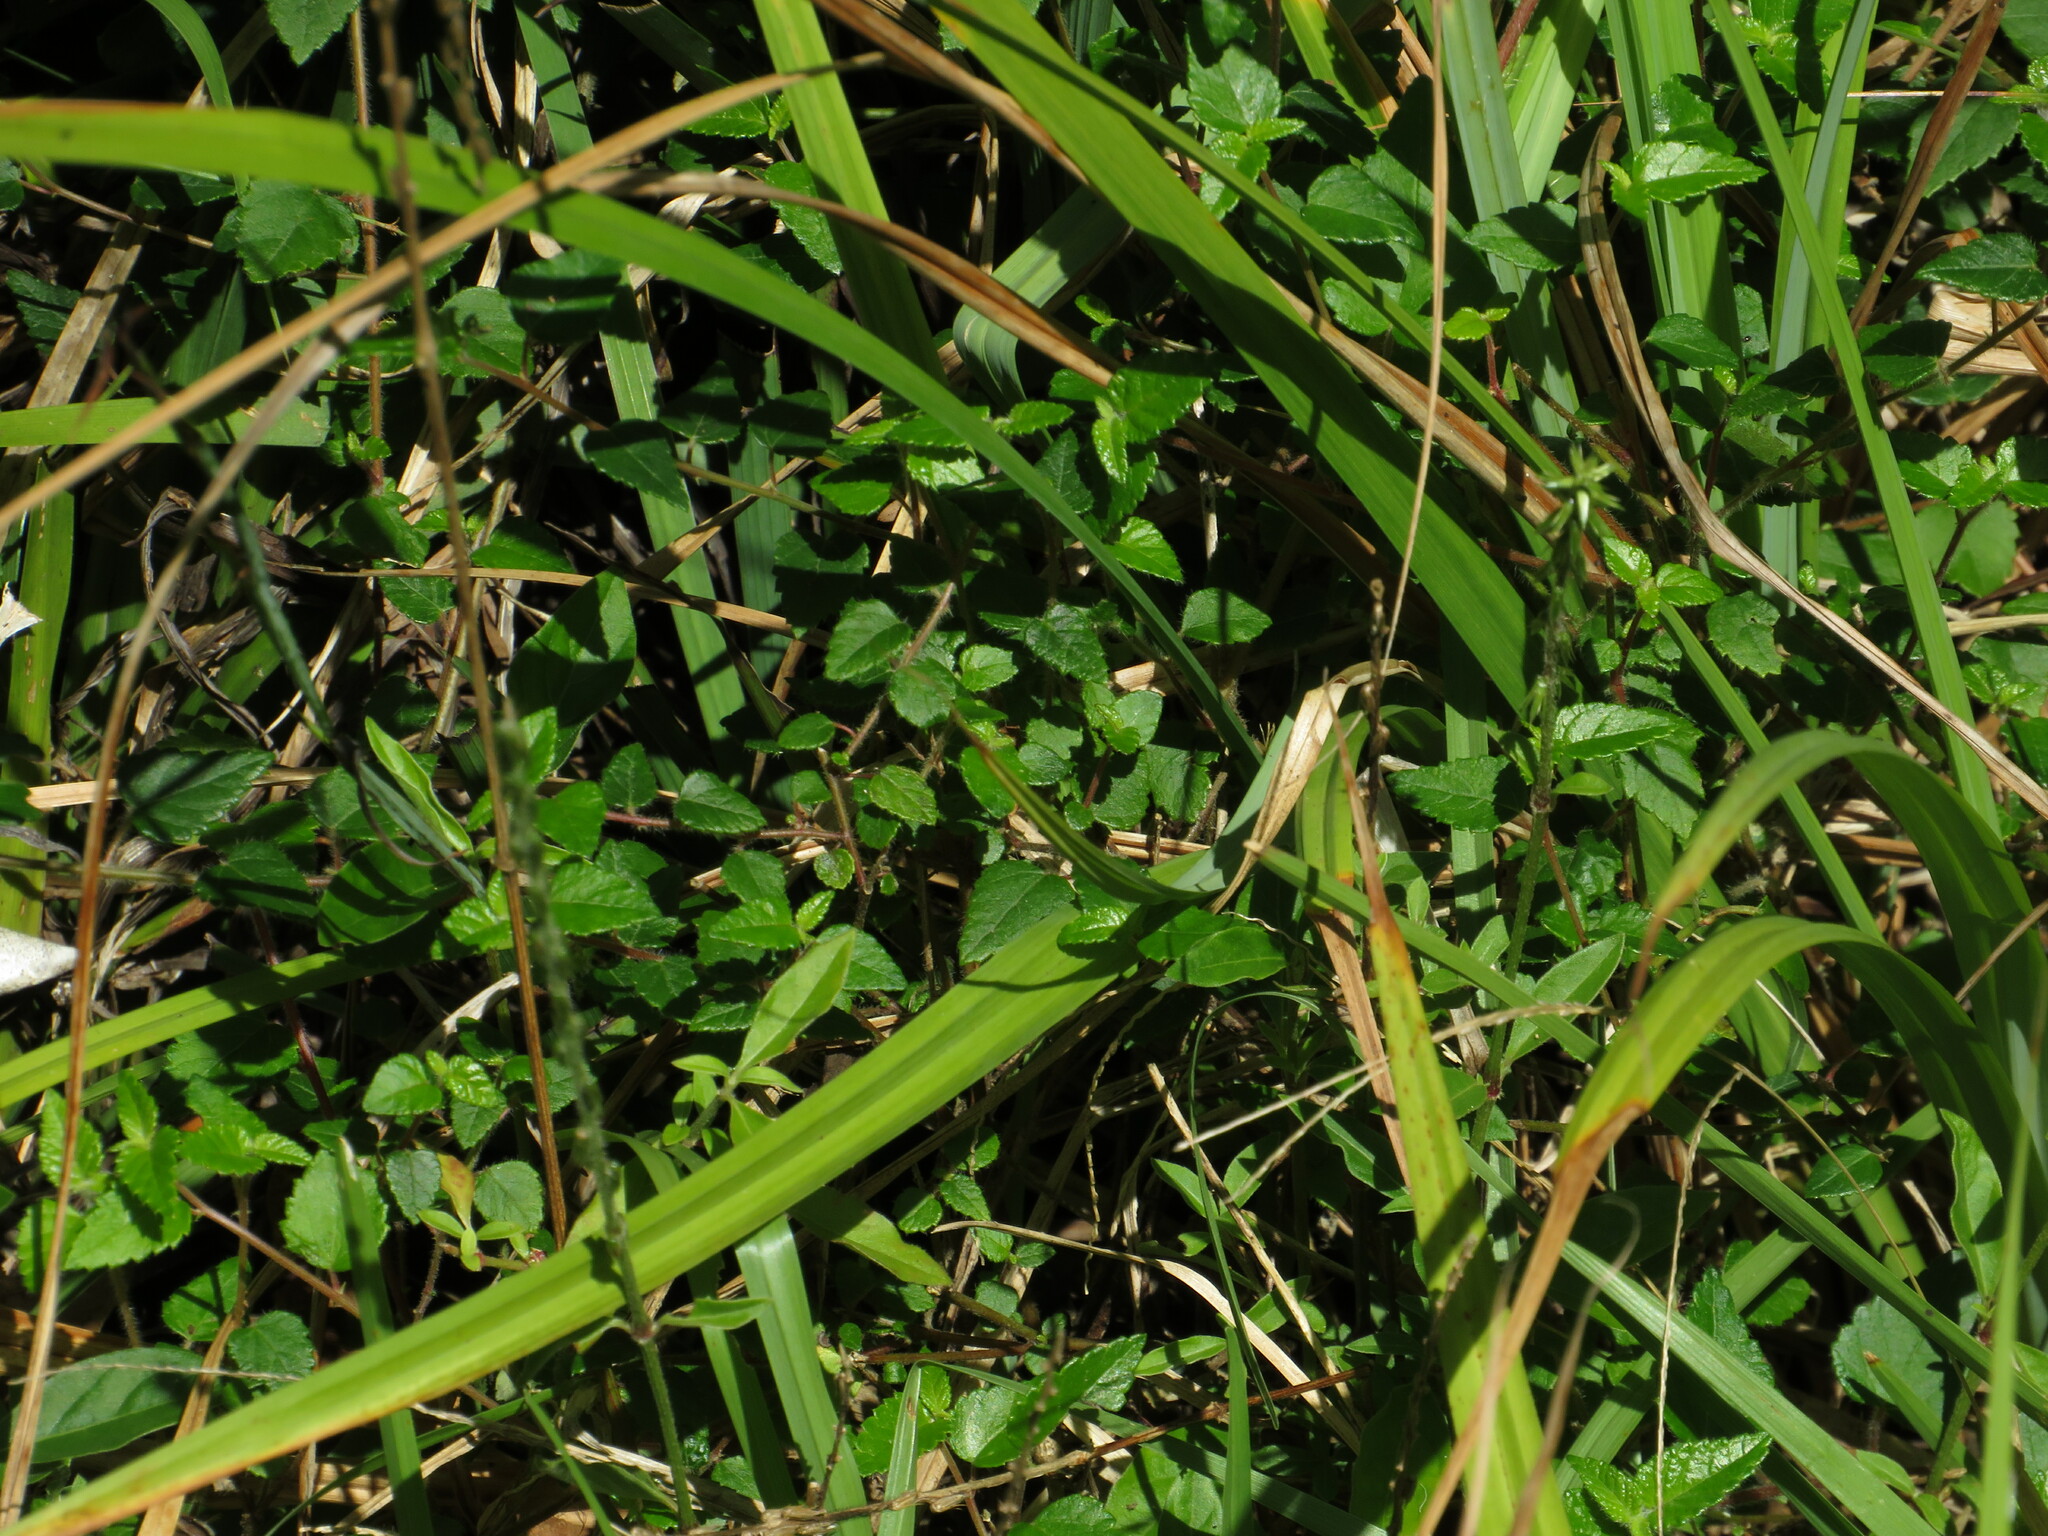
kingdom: Plantae
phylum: Tracheophyta
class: Magnoliopsida
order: Malpighiales
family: Euphorbiaceae
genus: Bernardia
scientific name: Bernardia corensis
